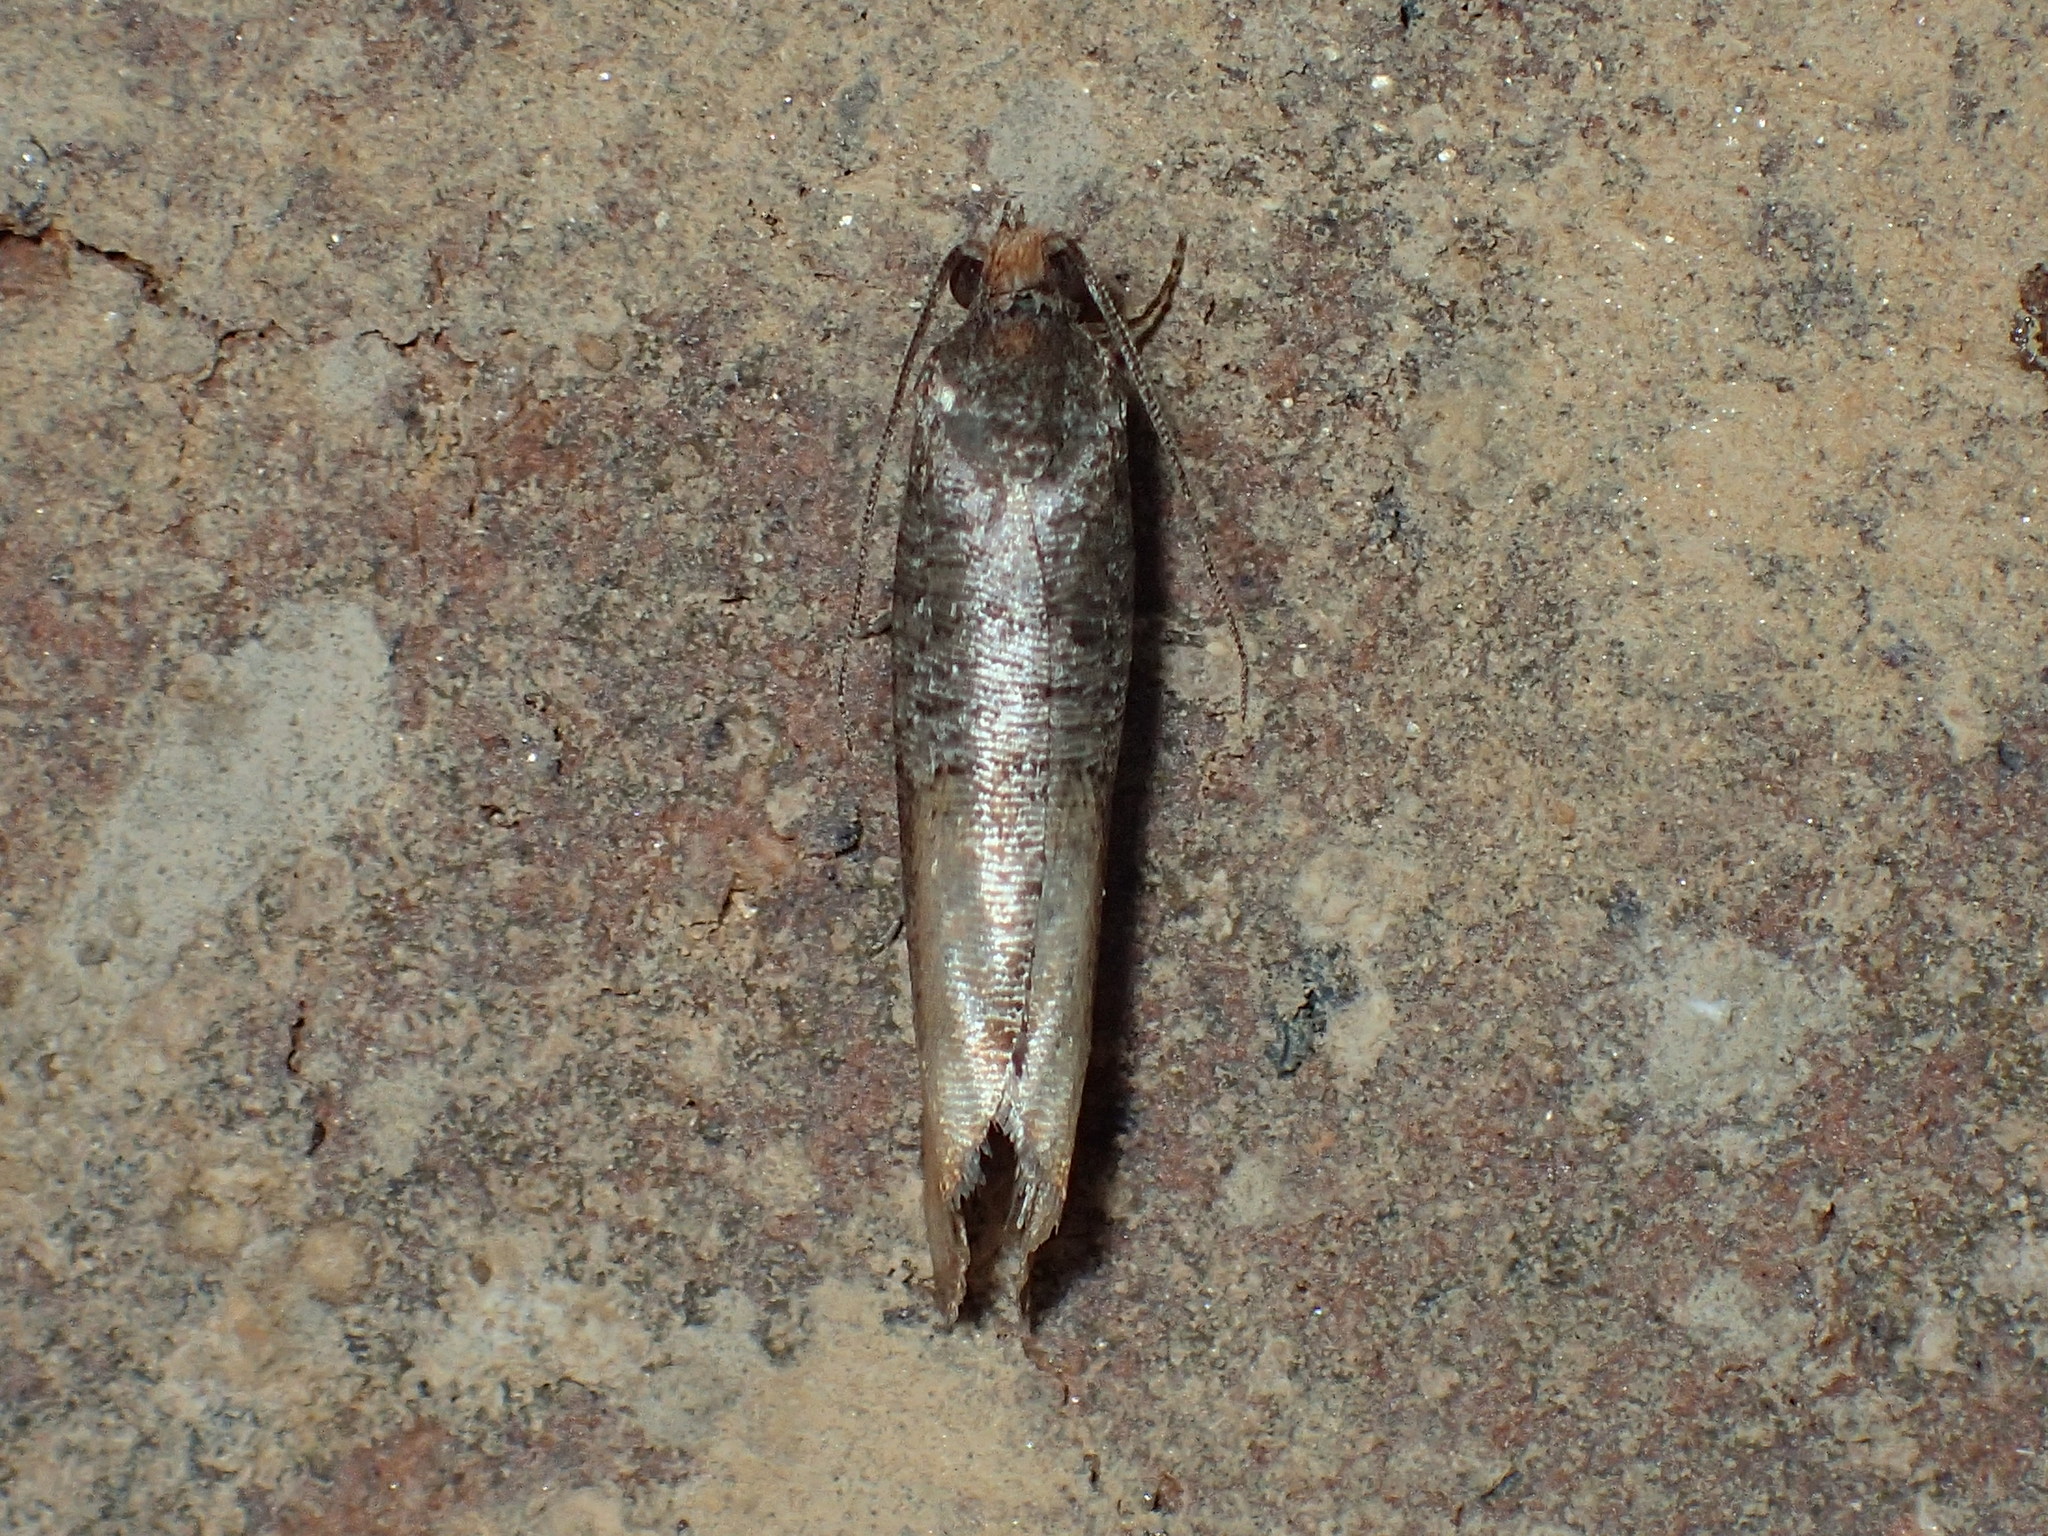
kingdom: Animalia
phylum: Arthropoda
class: Insecta
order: Lepidoptera
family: Tortricidae
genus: Rhyacionia
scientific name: Rhyacionia busckana
